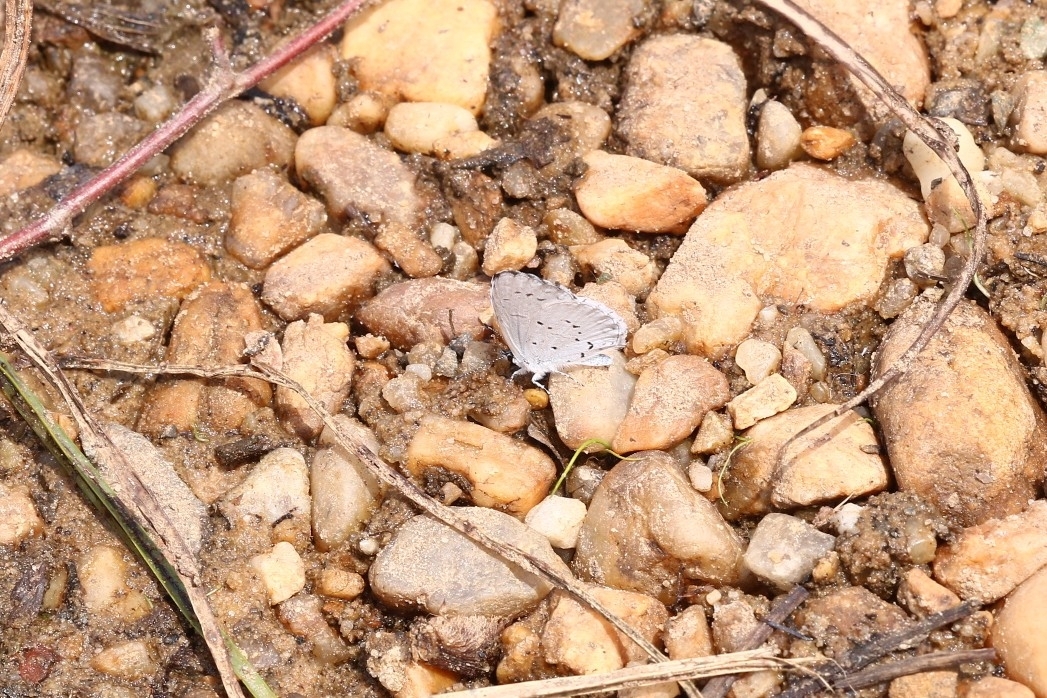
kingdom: Animalia
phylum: Arthropoda
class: Insecta
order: Lepidoptera
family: Lycaenidae
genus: Cyaniris
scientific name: Cyaniris neglecta
